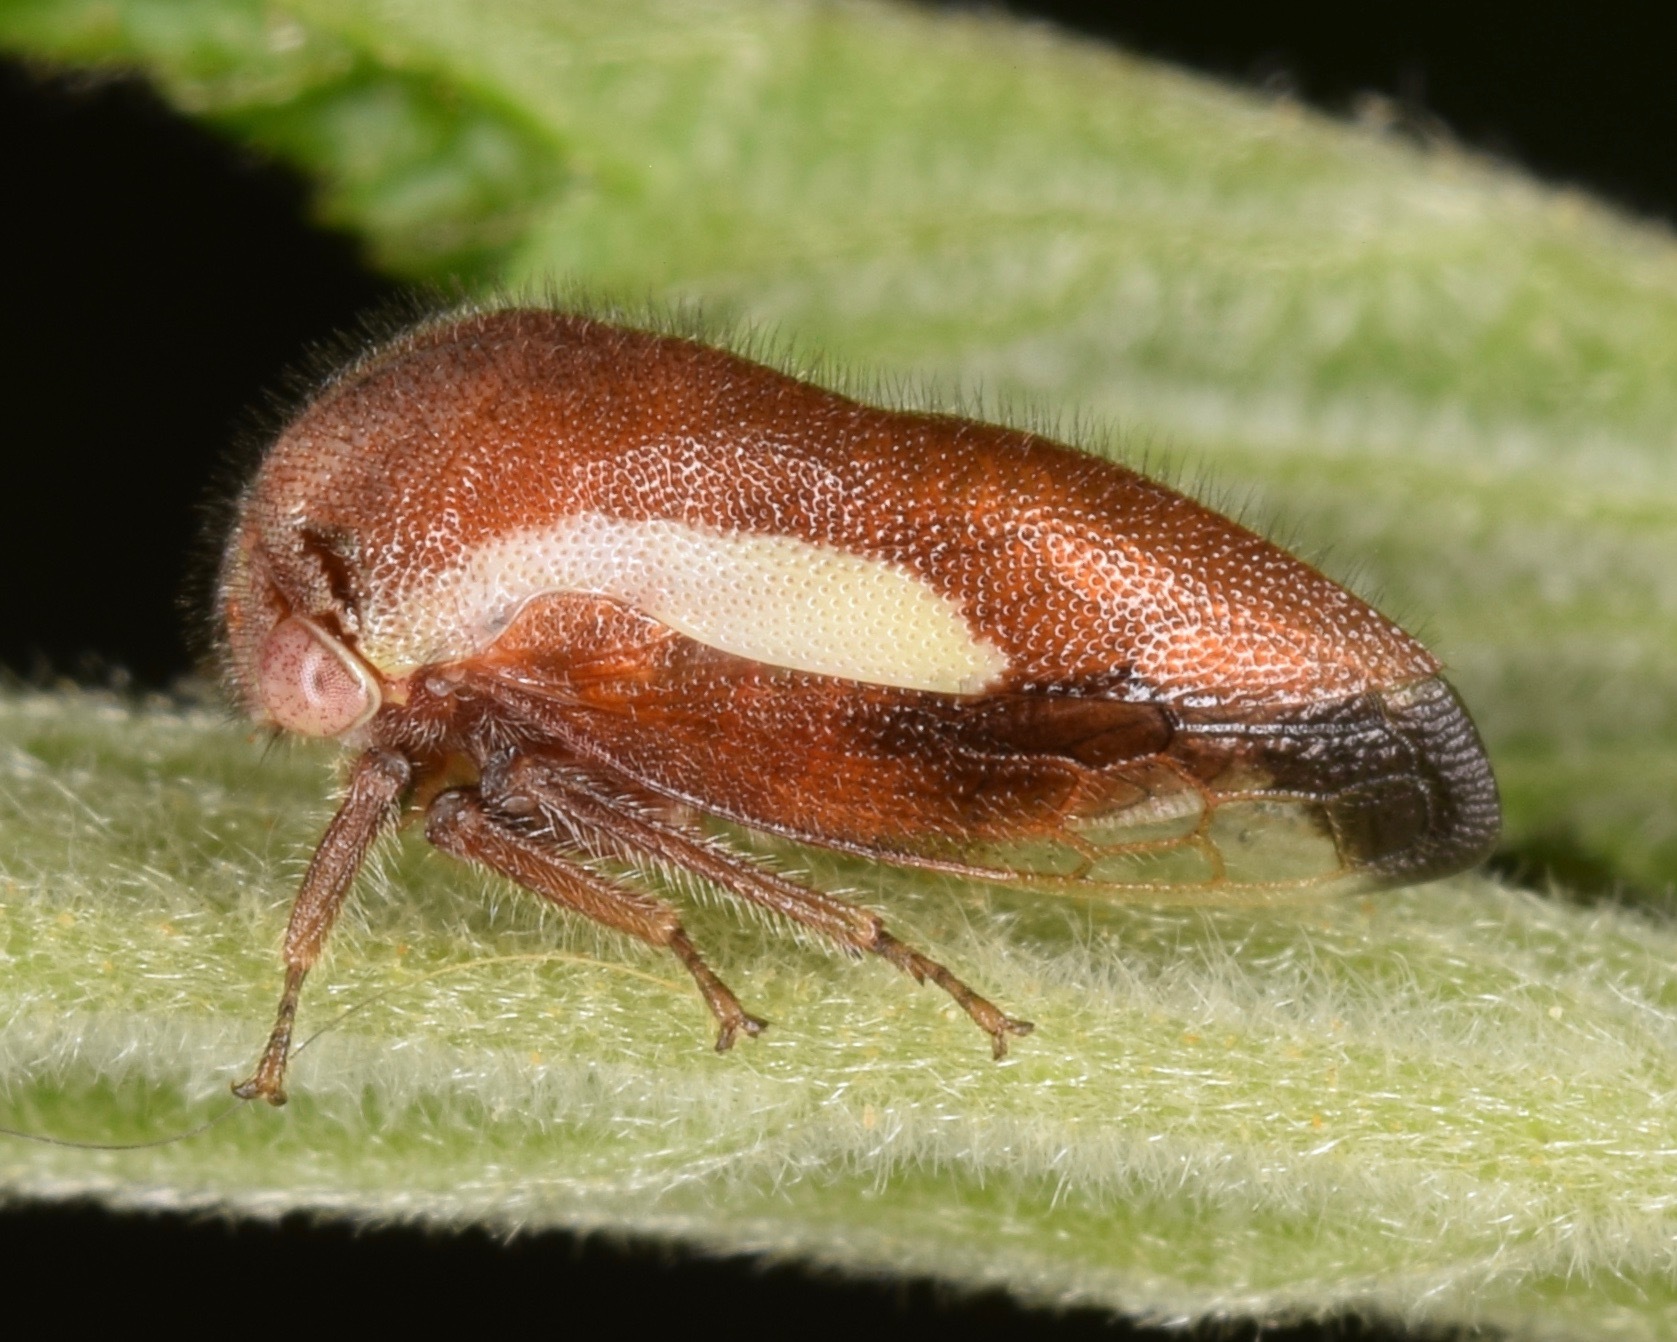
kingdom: Animalia
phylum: Arthropoda
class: Insecta
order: Hemiptera
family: Membracidae
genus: Ophiderma
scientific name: Ophiderma flavicephala
